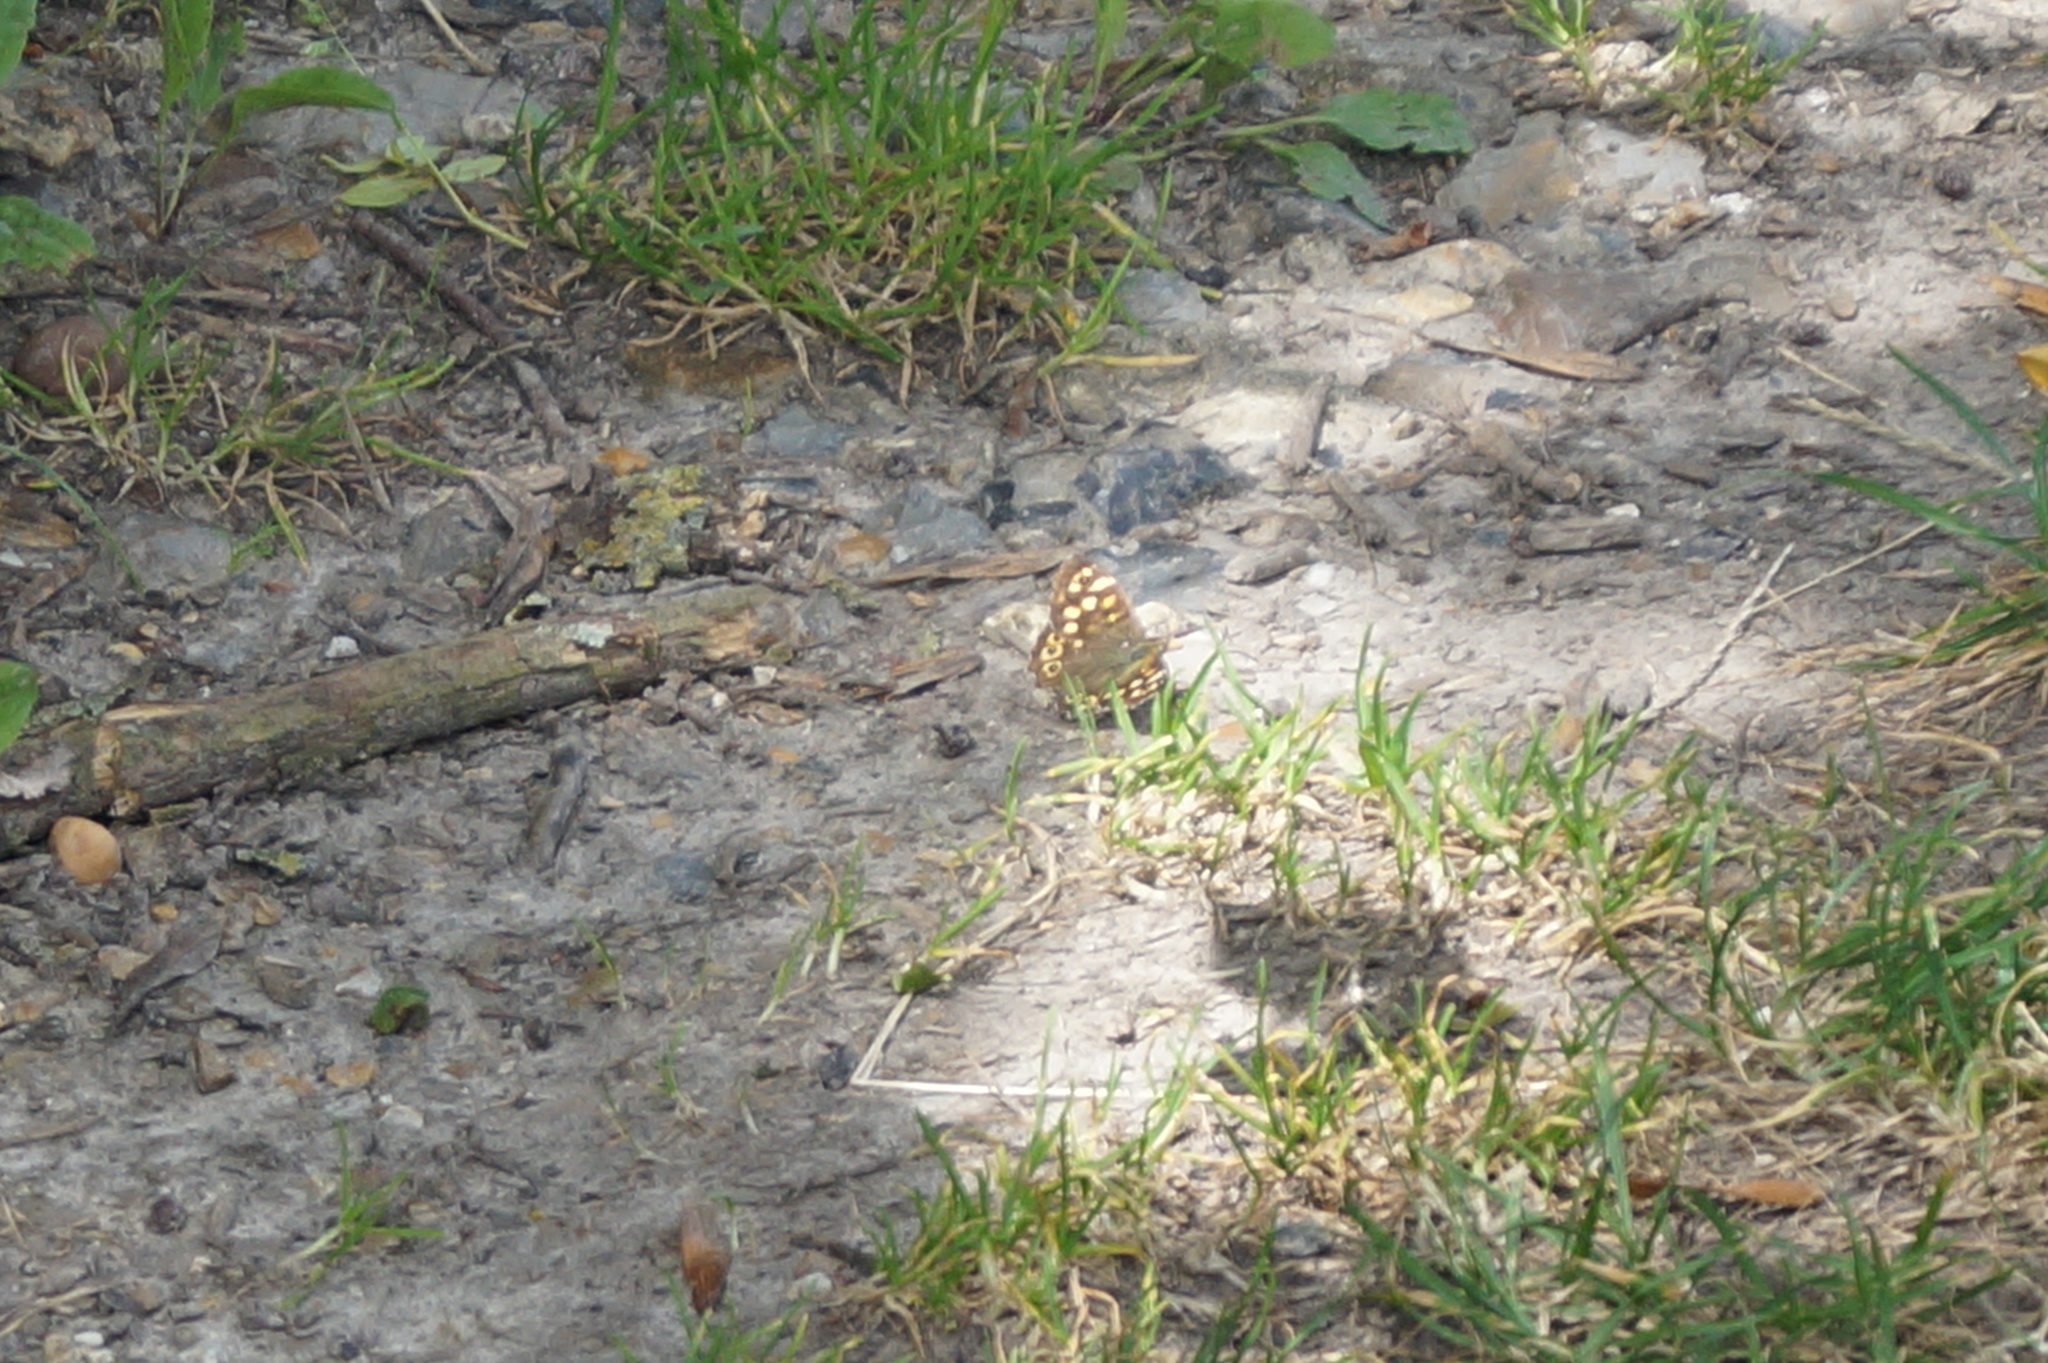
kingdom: Animalia
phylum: Arthropoda
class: Insecta
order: Lepidoptera
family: Nymphalidae
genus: Pararge
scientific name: Pararge aegeria
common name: Speckled wood
